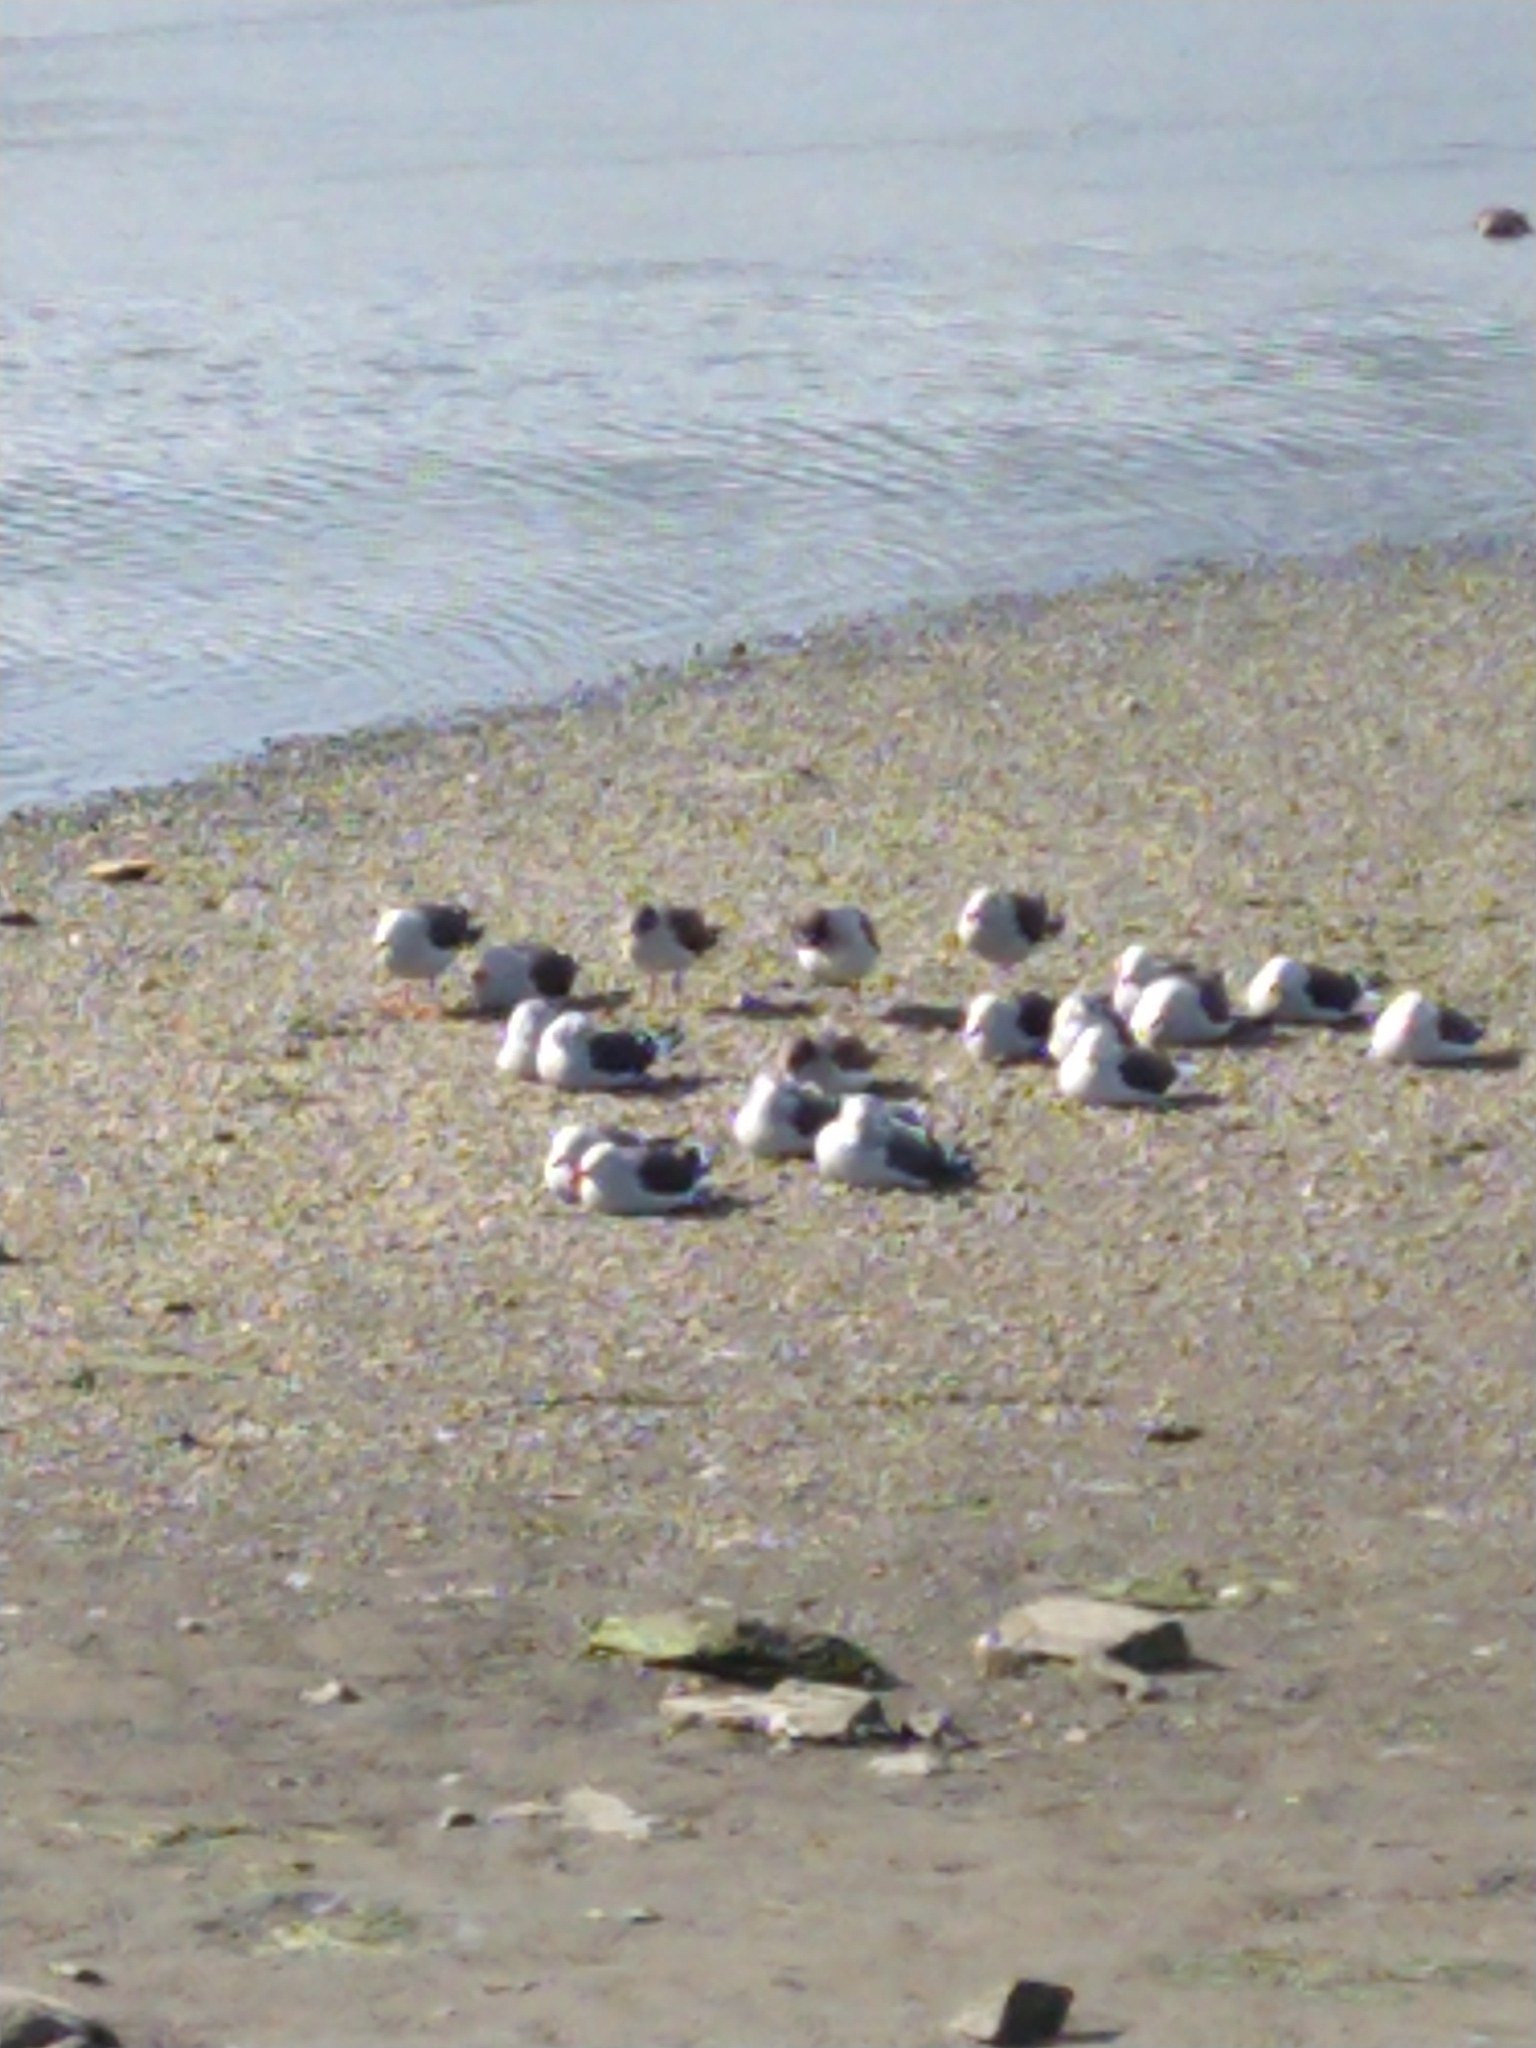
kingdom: Animalia
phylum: Chordata
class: Aves
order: Charadriiformes
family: Laridae
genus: Leucophaeus
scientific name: Leucophaeus scoresbii
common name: Dolphin gull
